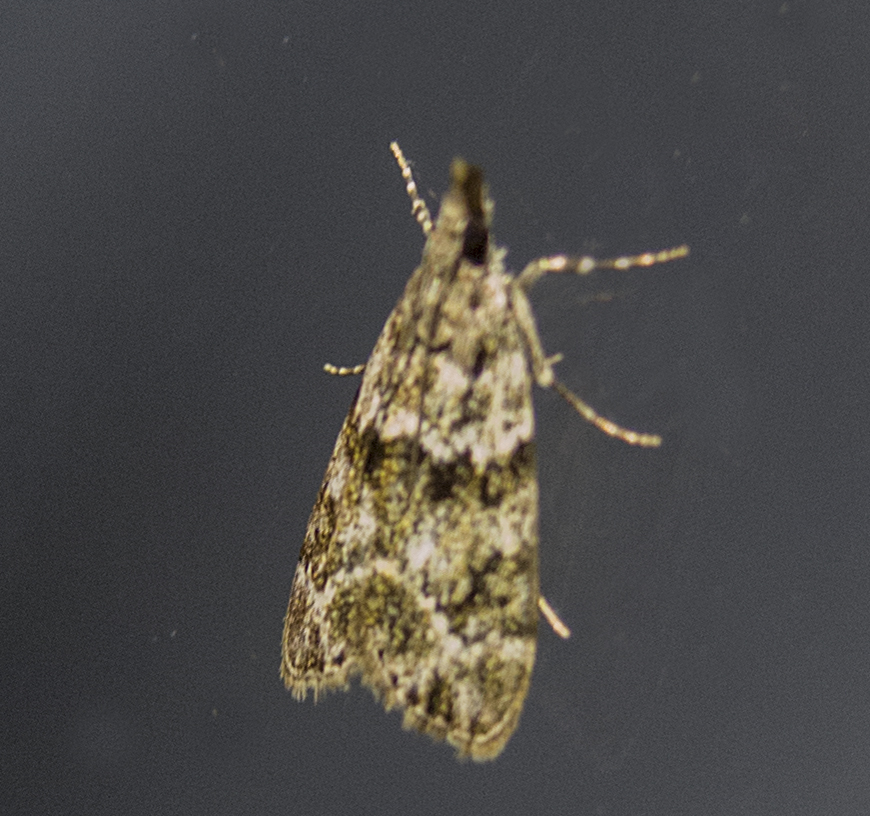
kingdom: Animalia
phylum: Arthropoda
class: Insecta
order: Lepidoptera
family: Crambidae
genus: Eudonia
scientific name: Eudonia mercurella
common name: Small grey
